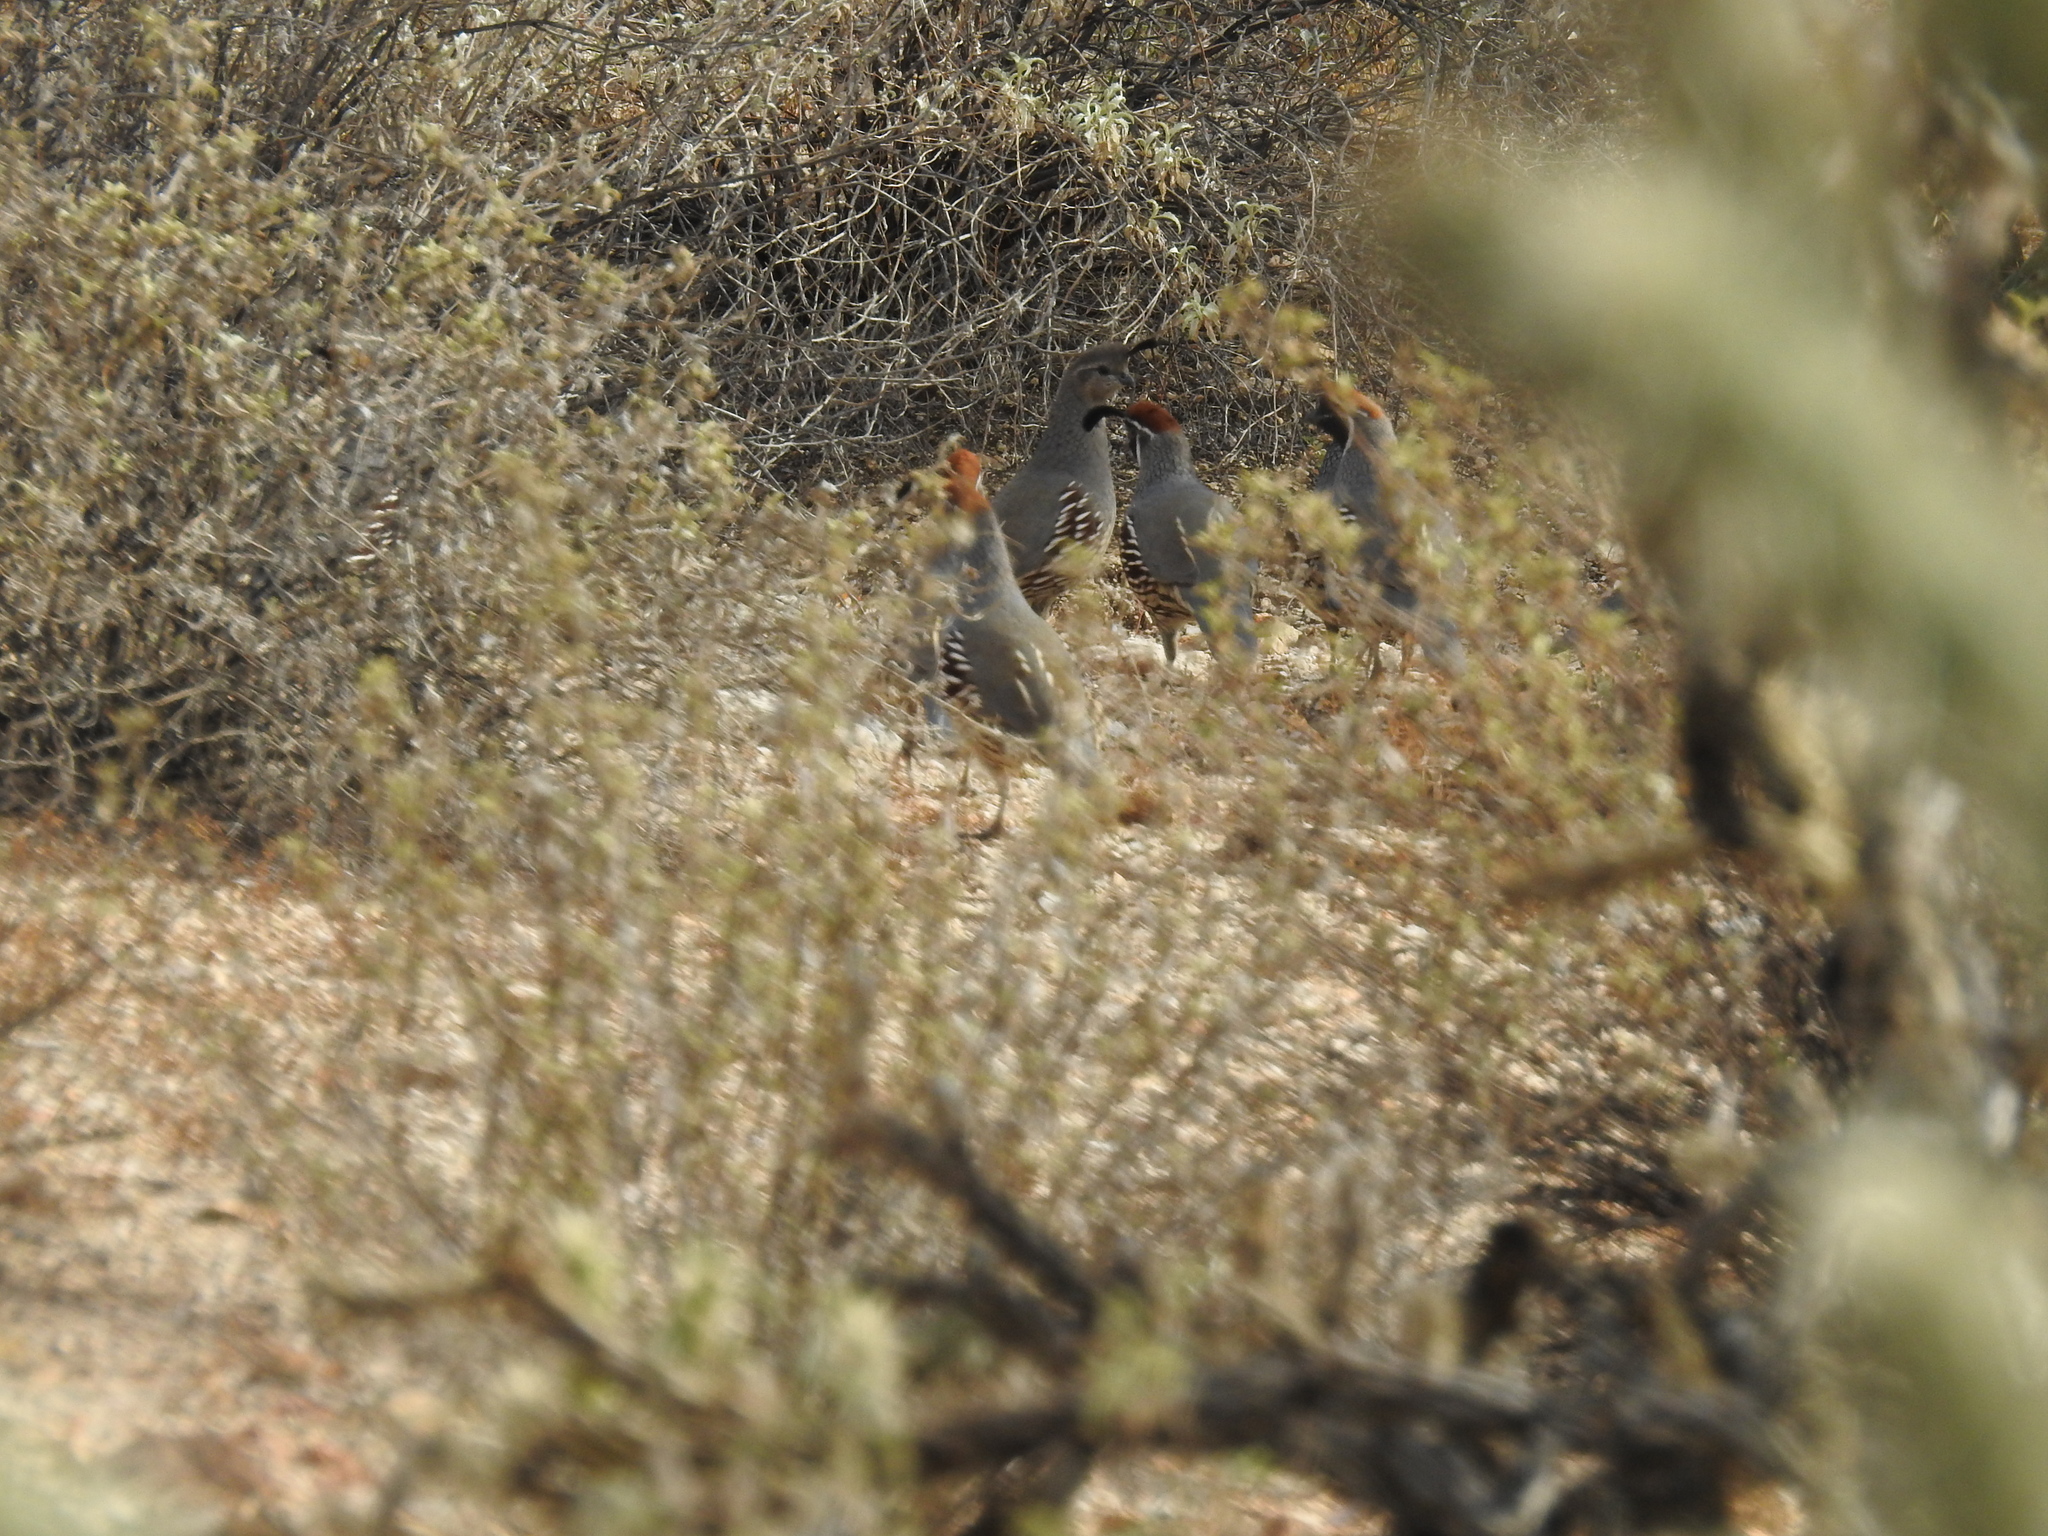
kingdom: Animalia
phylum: Chordata
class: Aves
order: Galliformes
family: Odontophoridae
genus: Callipepla
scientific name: Callipepla gambelii
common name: Gambel's quail
